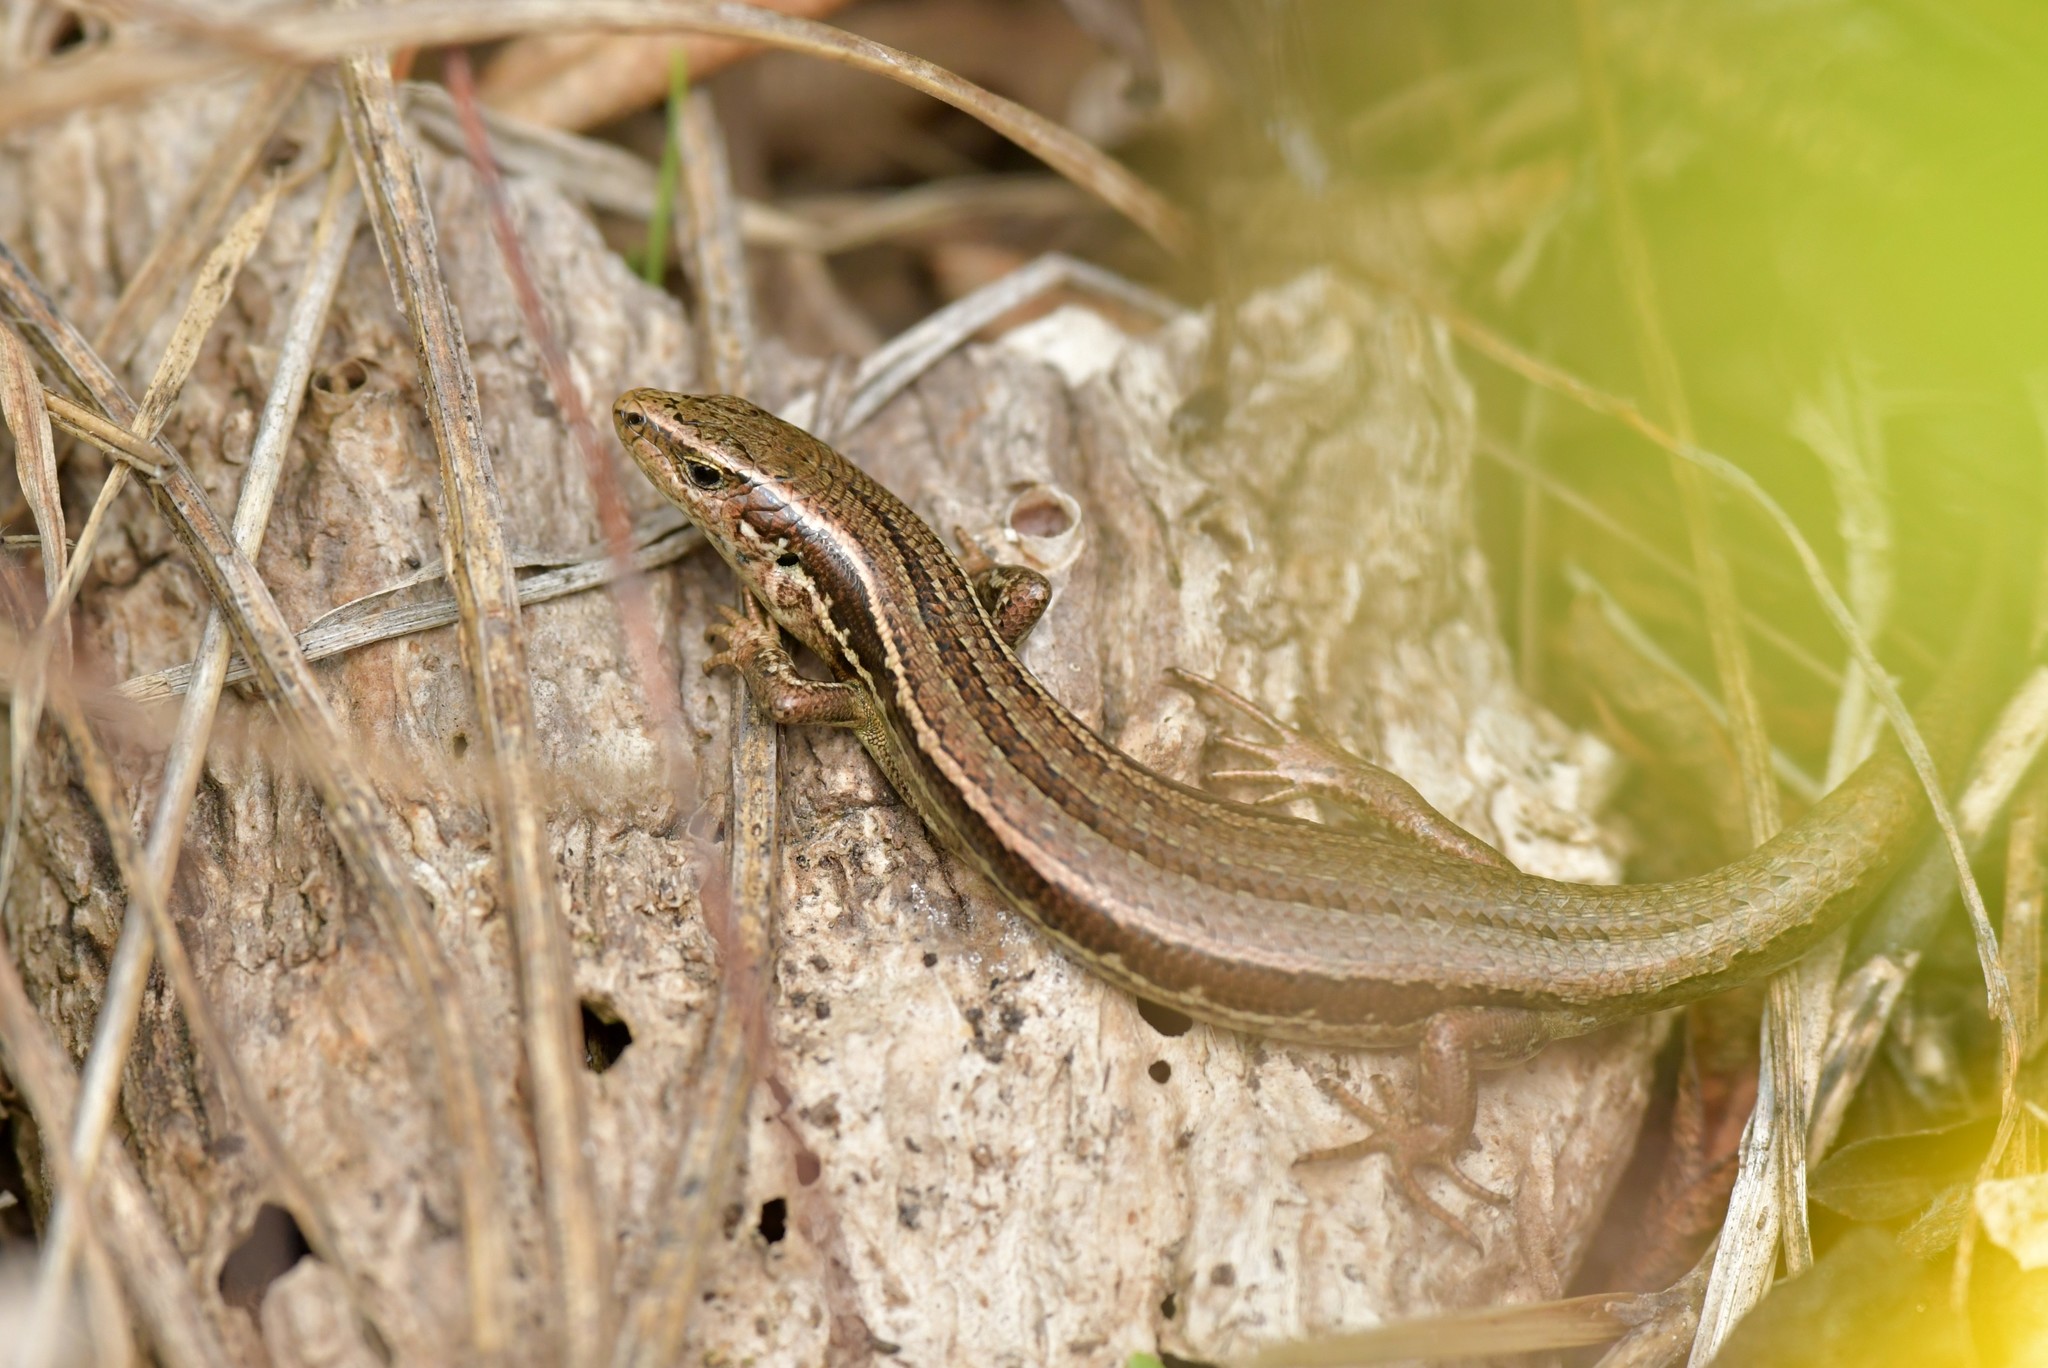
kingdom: Animalia
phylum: Chordata
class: Squamata
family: Scincidae
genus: Oligosoma
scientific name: Oligosoma polychroma
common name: Common new zealand skink
